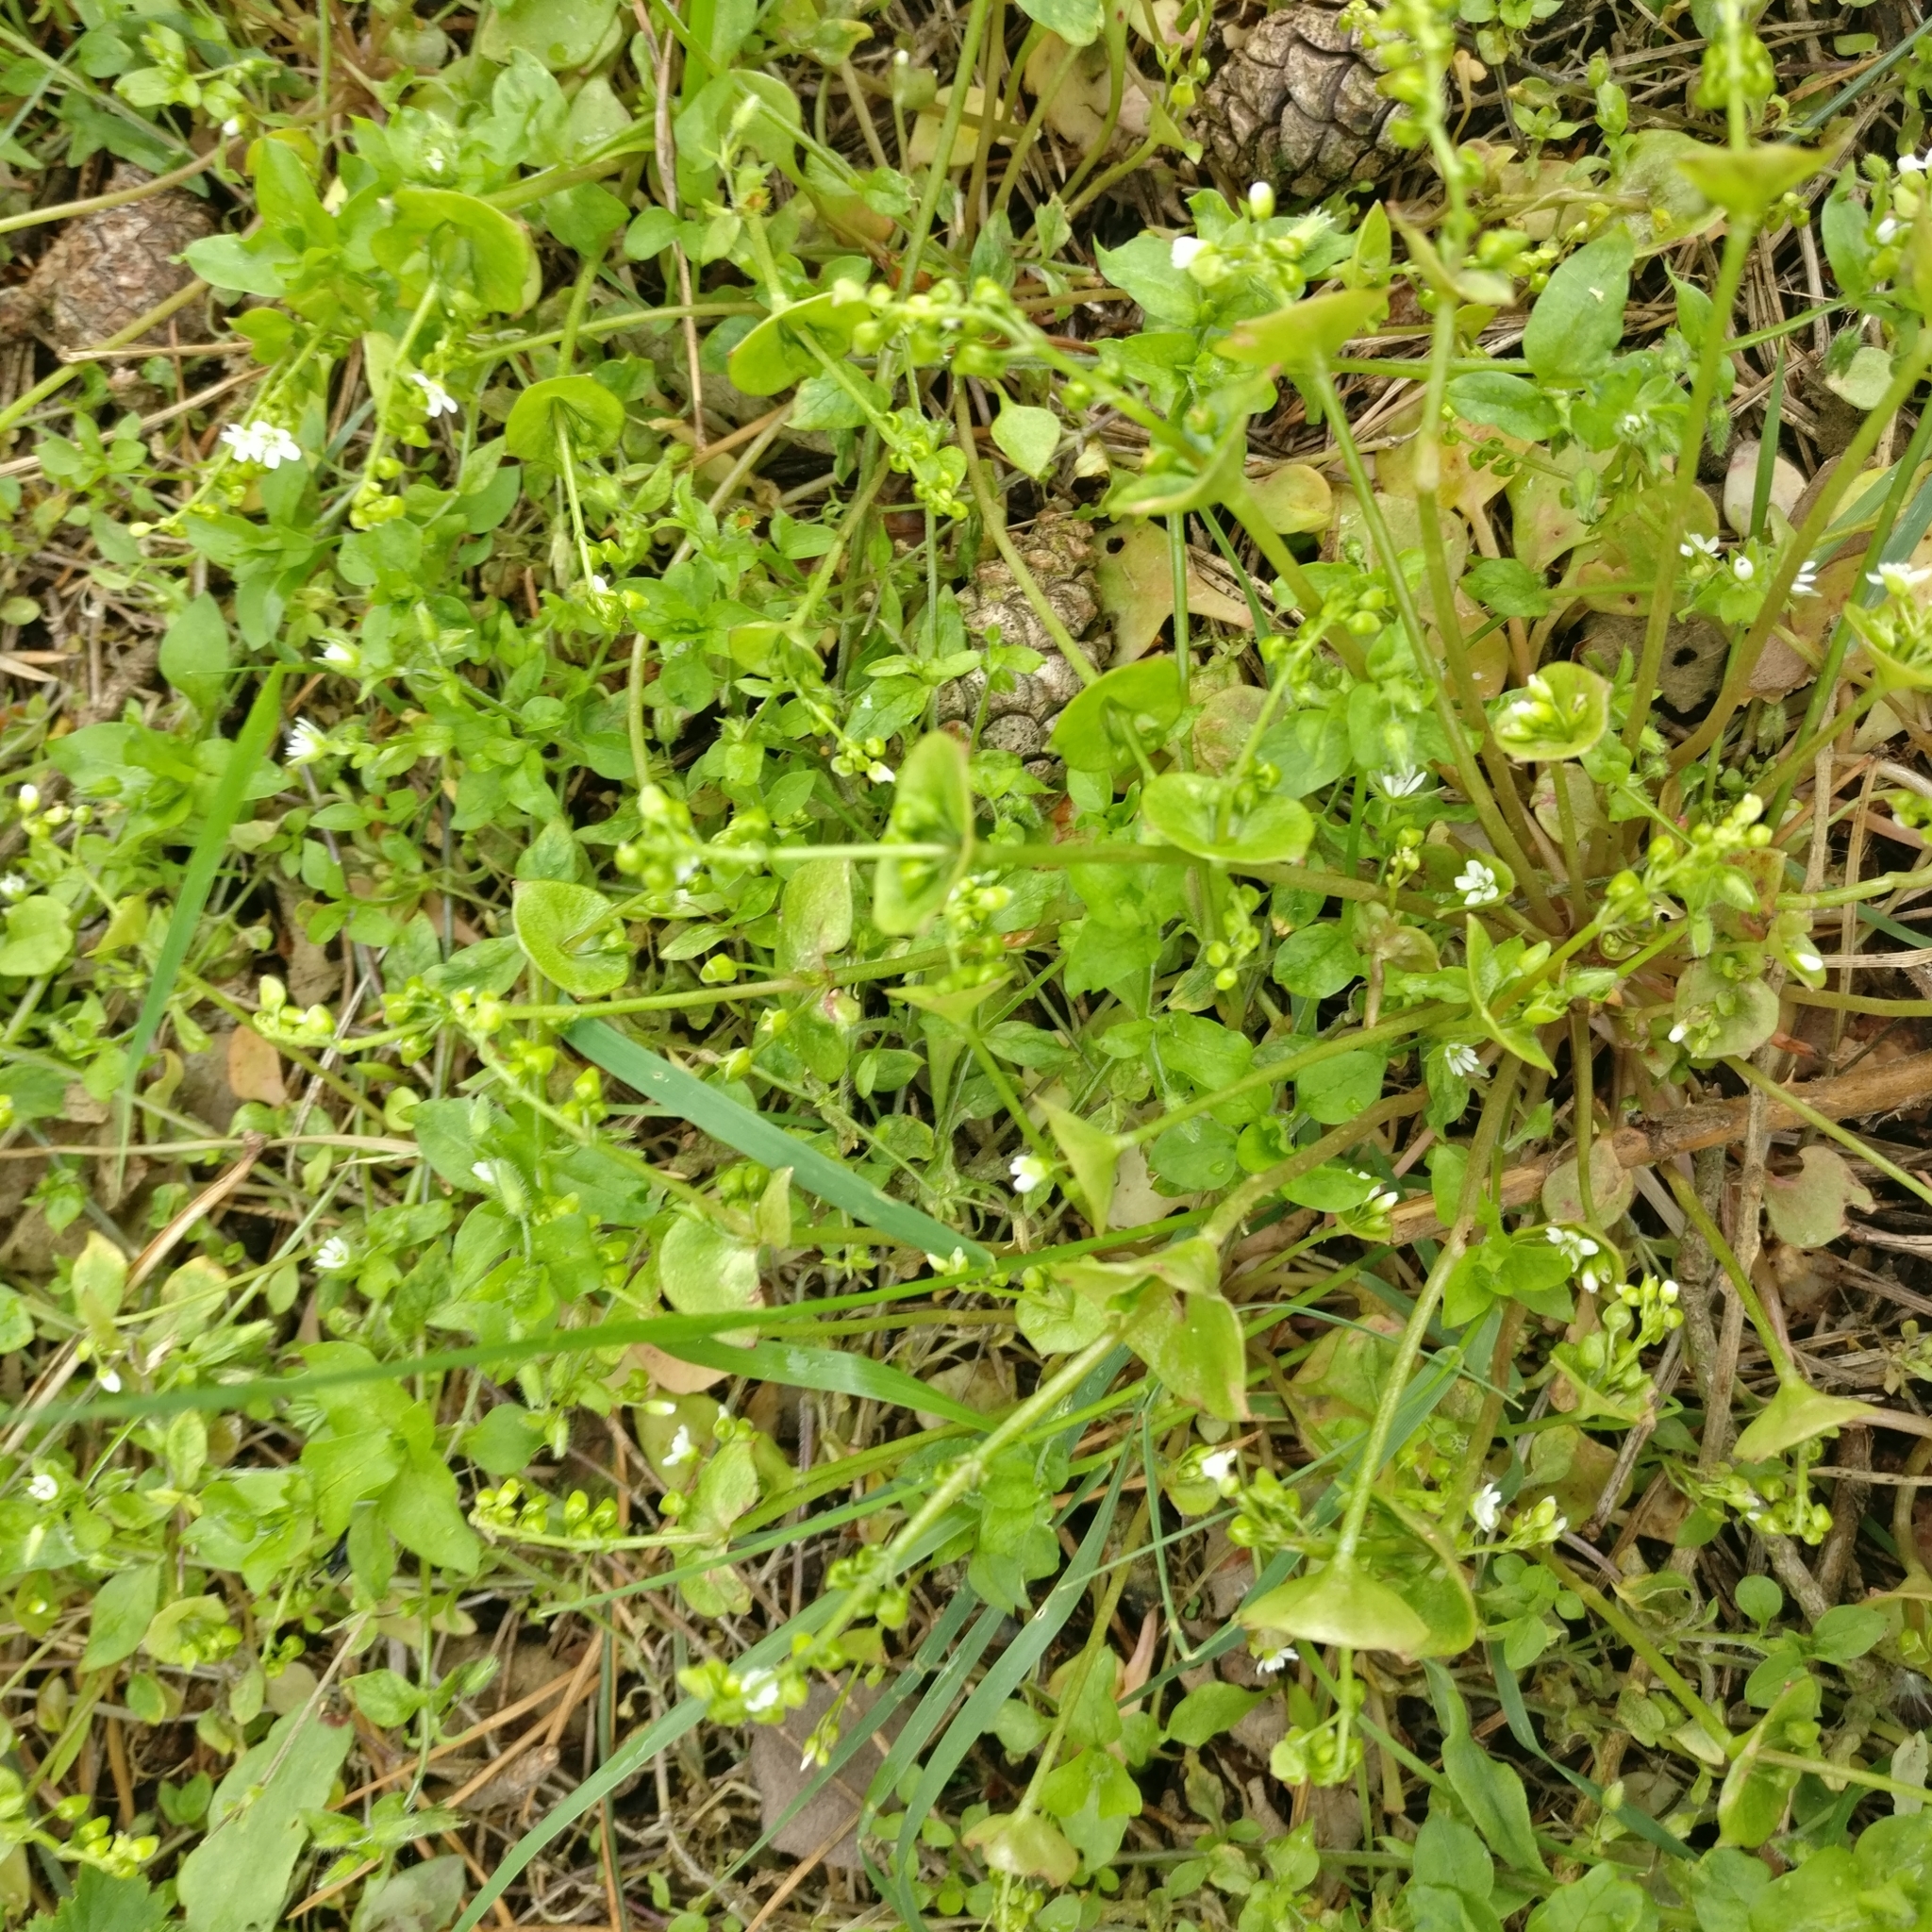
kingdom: Plantae
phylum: Tracheophyta
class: Magnoliopsida
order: Caryophyllales
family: Montiaceae
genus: Claytonia
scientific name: Claytonia perfoliata
